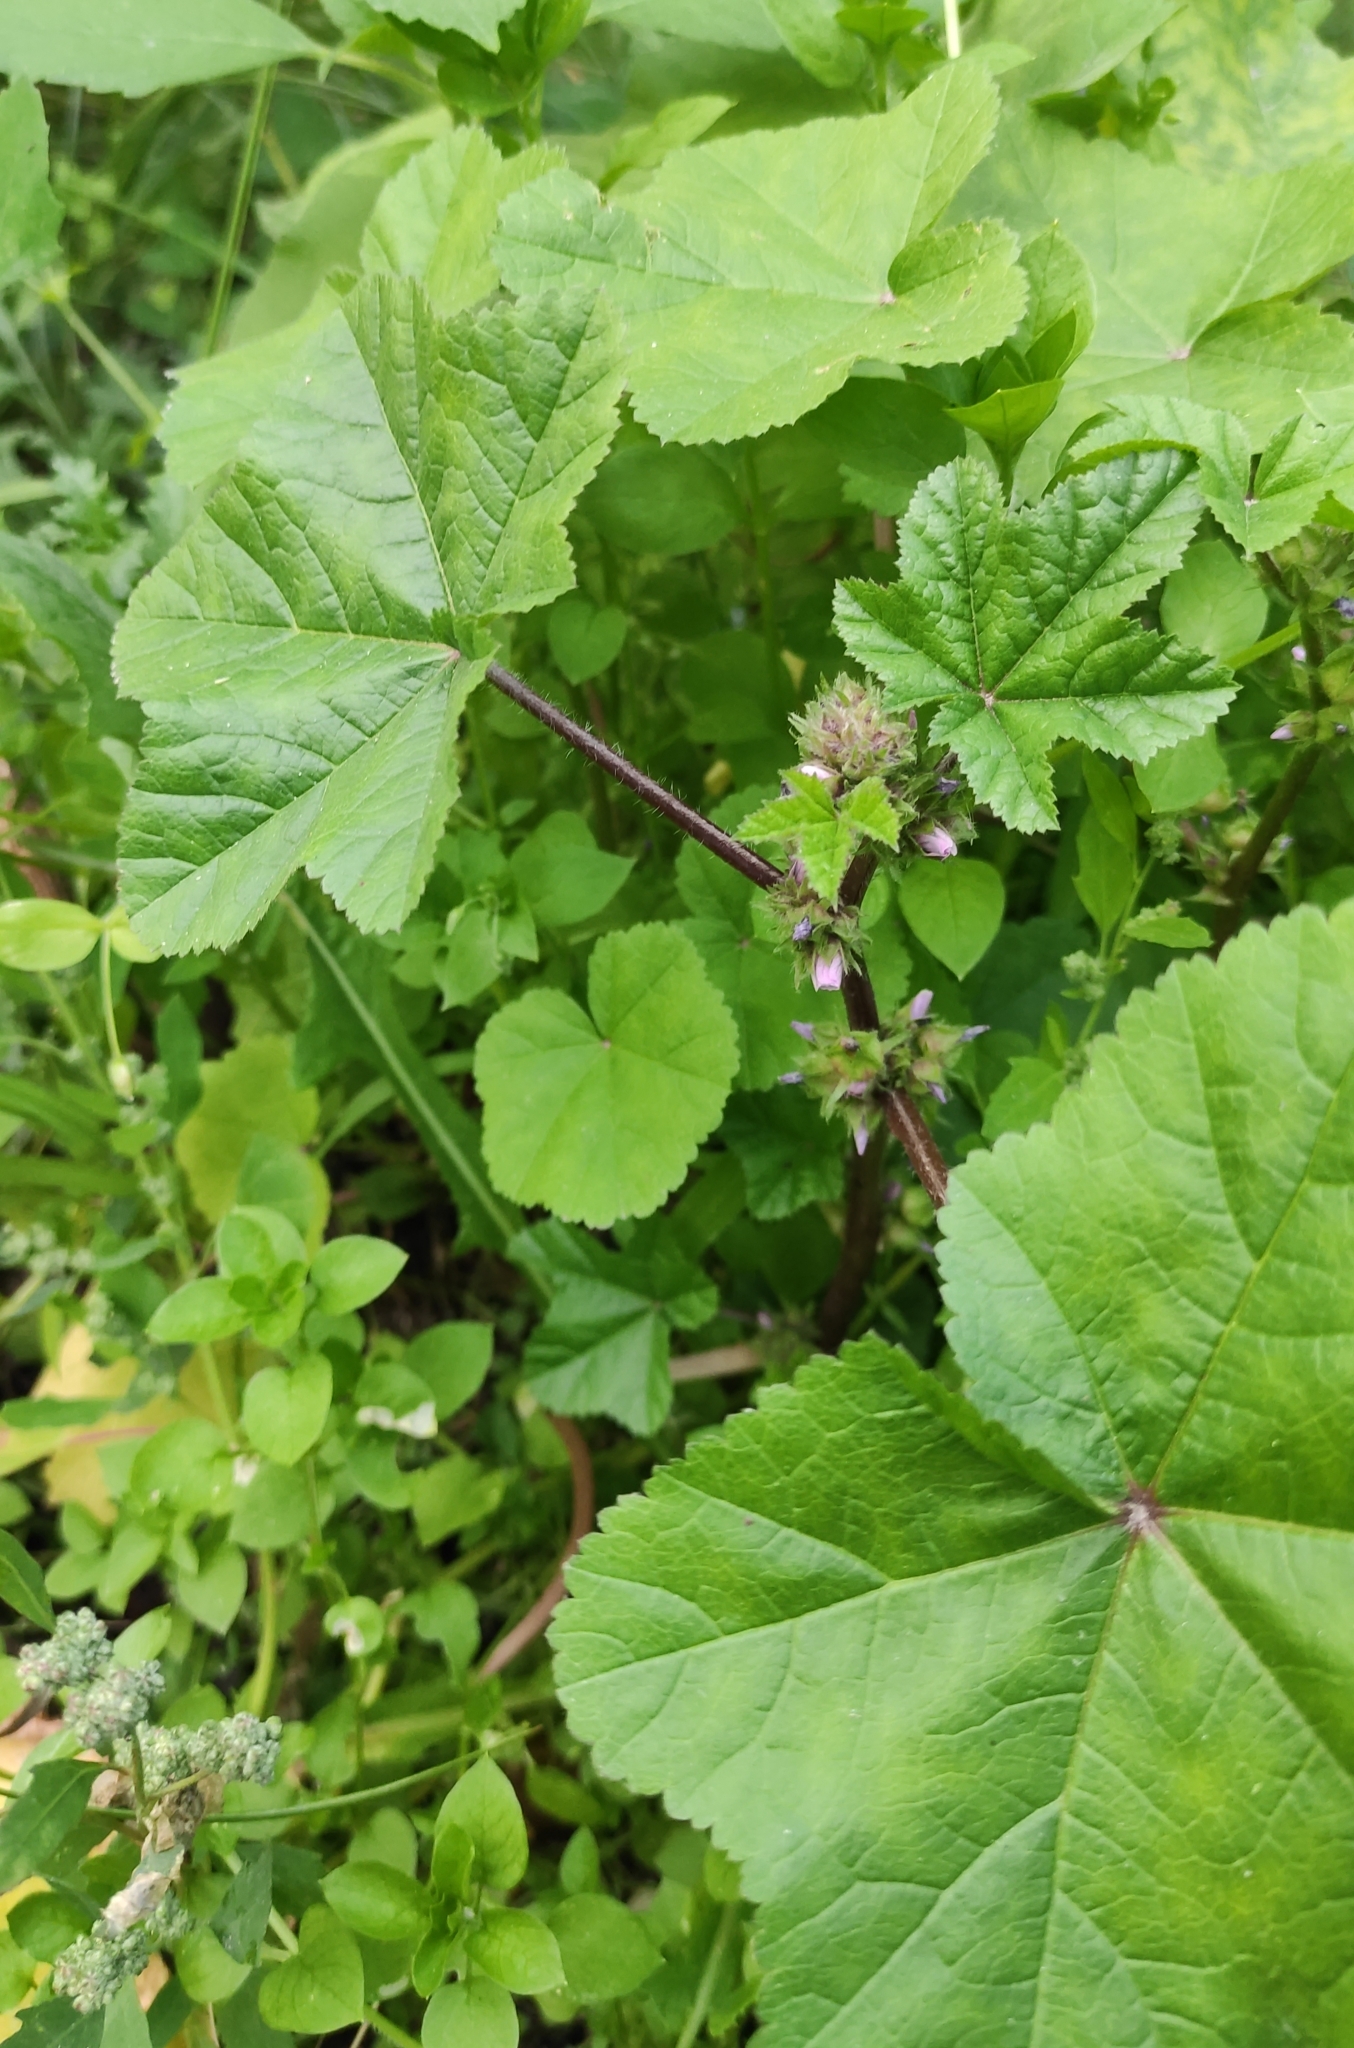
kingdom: Plantae
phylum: Tracheophyta
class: Magnoliopsida
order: Malvales
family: Malvaceae
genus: Malva
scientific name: Malva verticillata
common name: Chinese mallow
